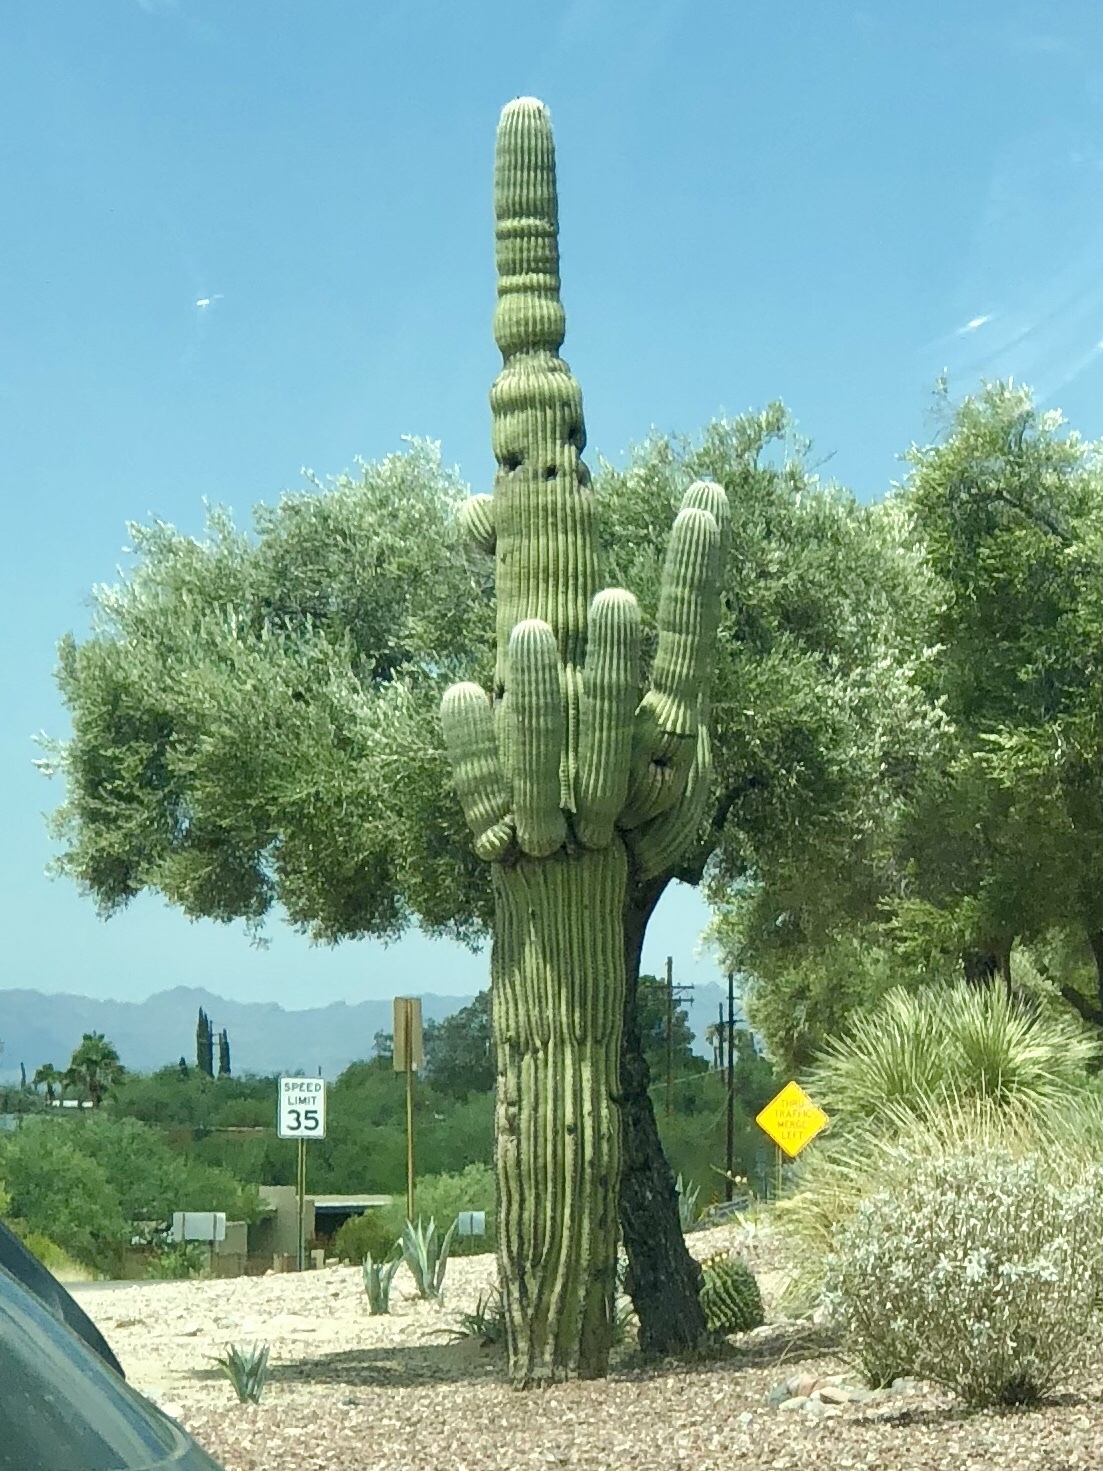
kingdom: Plantae
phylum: Tracheophyta
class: Magnoliopsida
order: Caryophyllales
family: Cactaceae
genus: Carnegiea
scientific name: Carnegiea gigantea
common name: Saguaro
